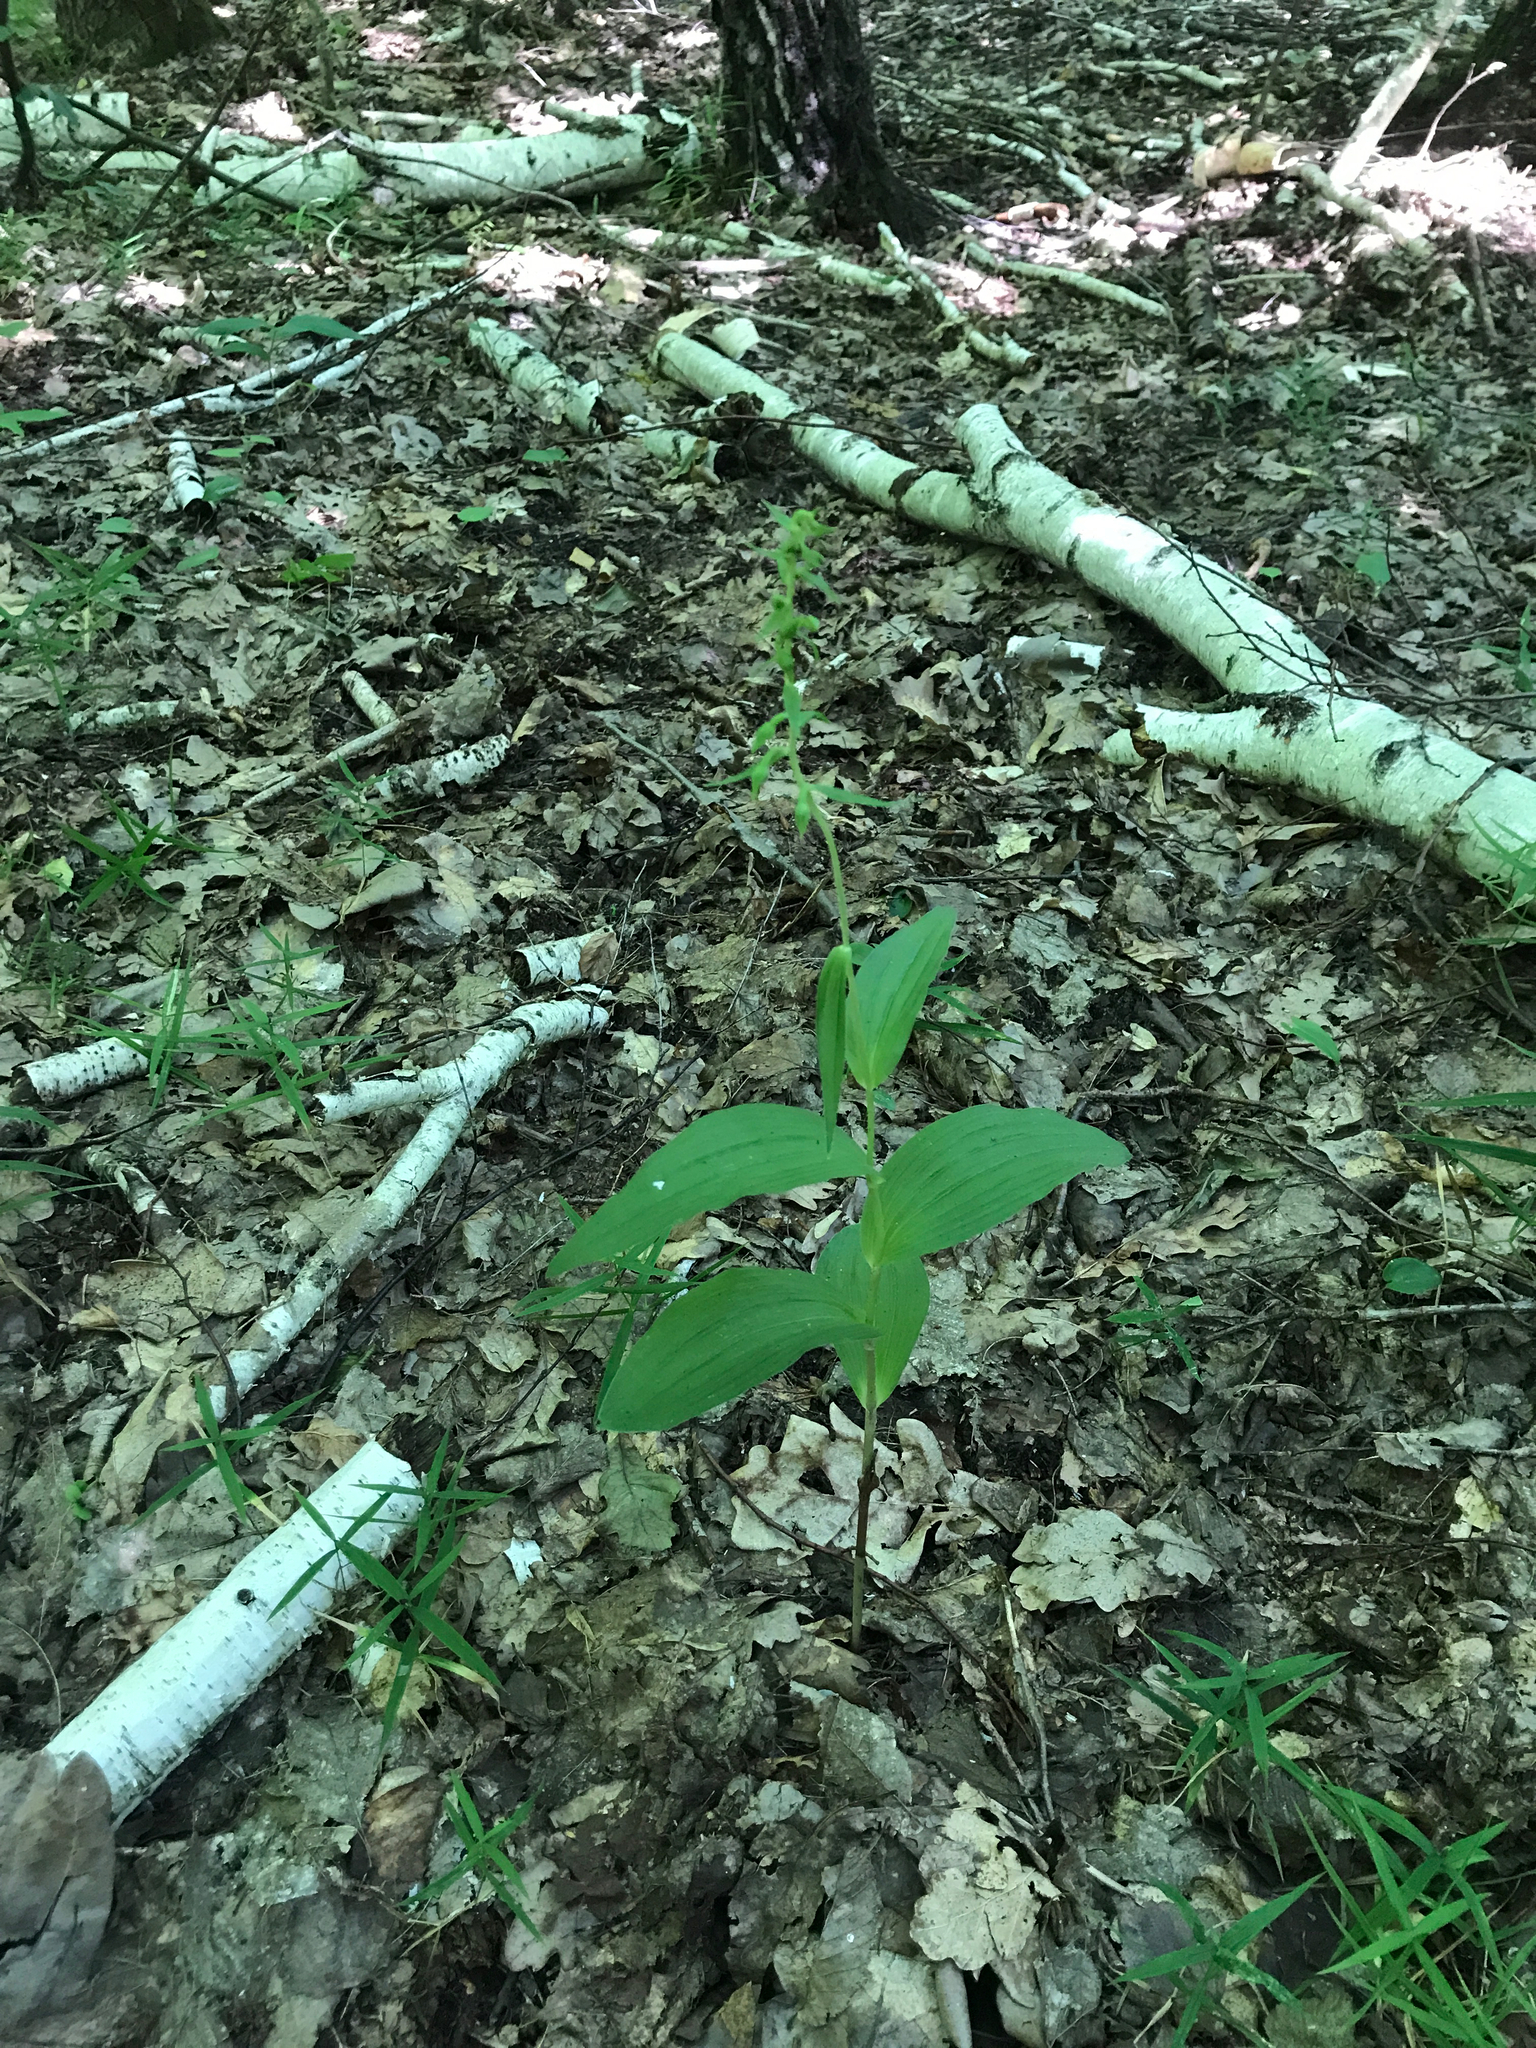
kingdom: Plantae
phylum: Tracheophyta
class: Liliopsida
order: Asparagales
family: Orchidaceae
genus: Epipactis
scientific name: Epipactis helleborine
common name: Broad-leaved helleborine
